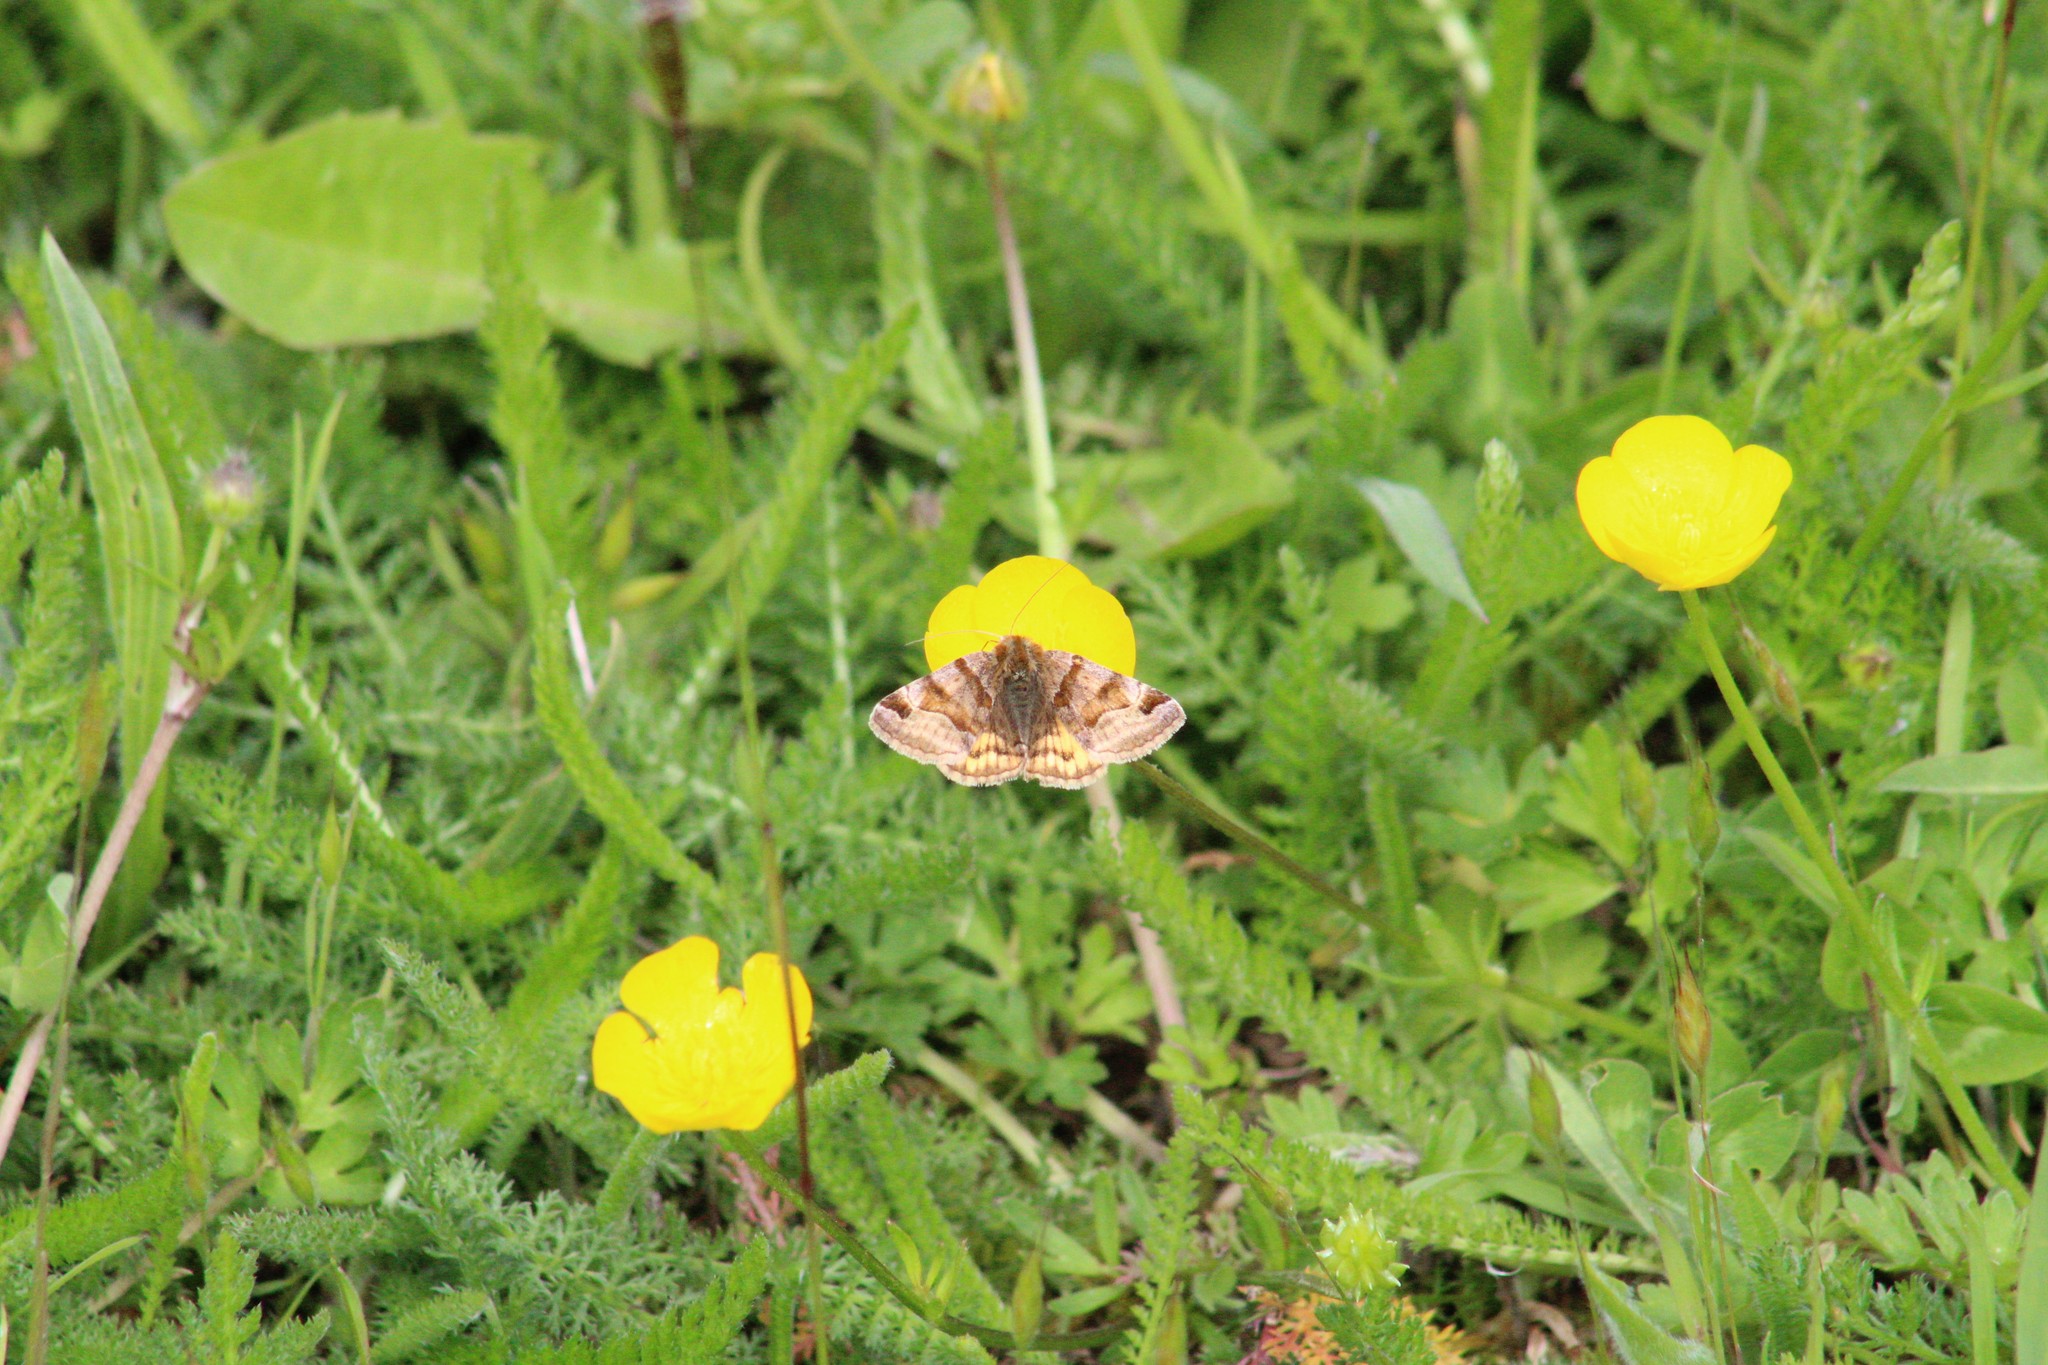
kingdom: Animalia
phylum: Arthropoda
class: Insecta
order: Lepidoptera
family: Erebidae
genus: Euclidia
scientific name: Euclidia glyphica
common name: Burnet companion
